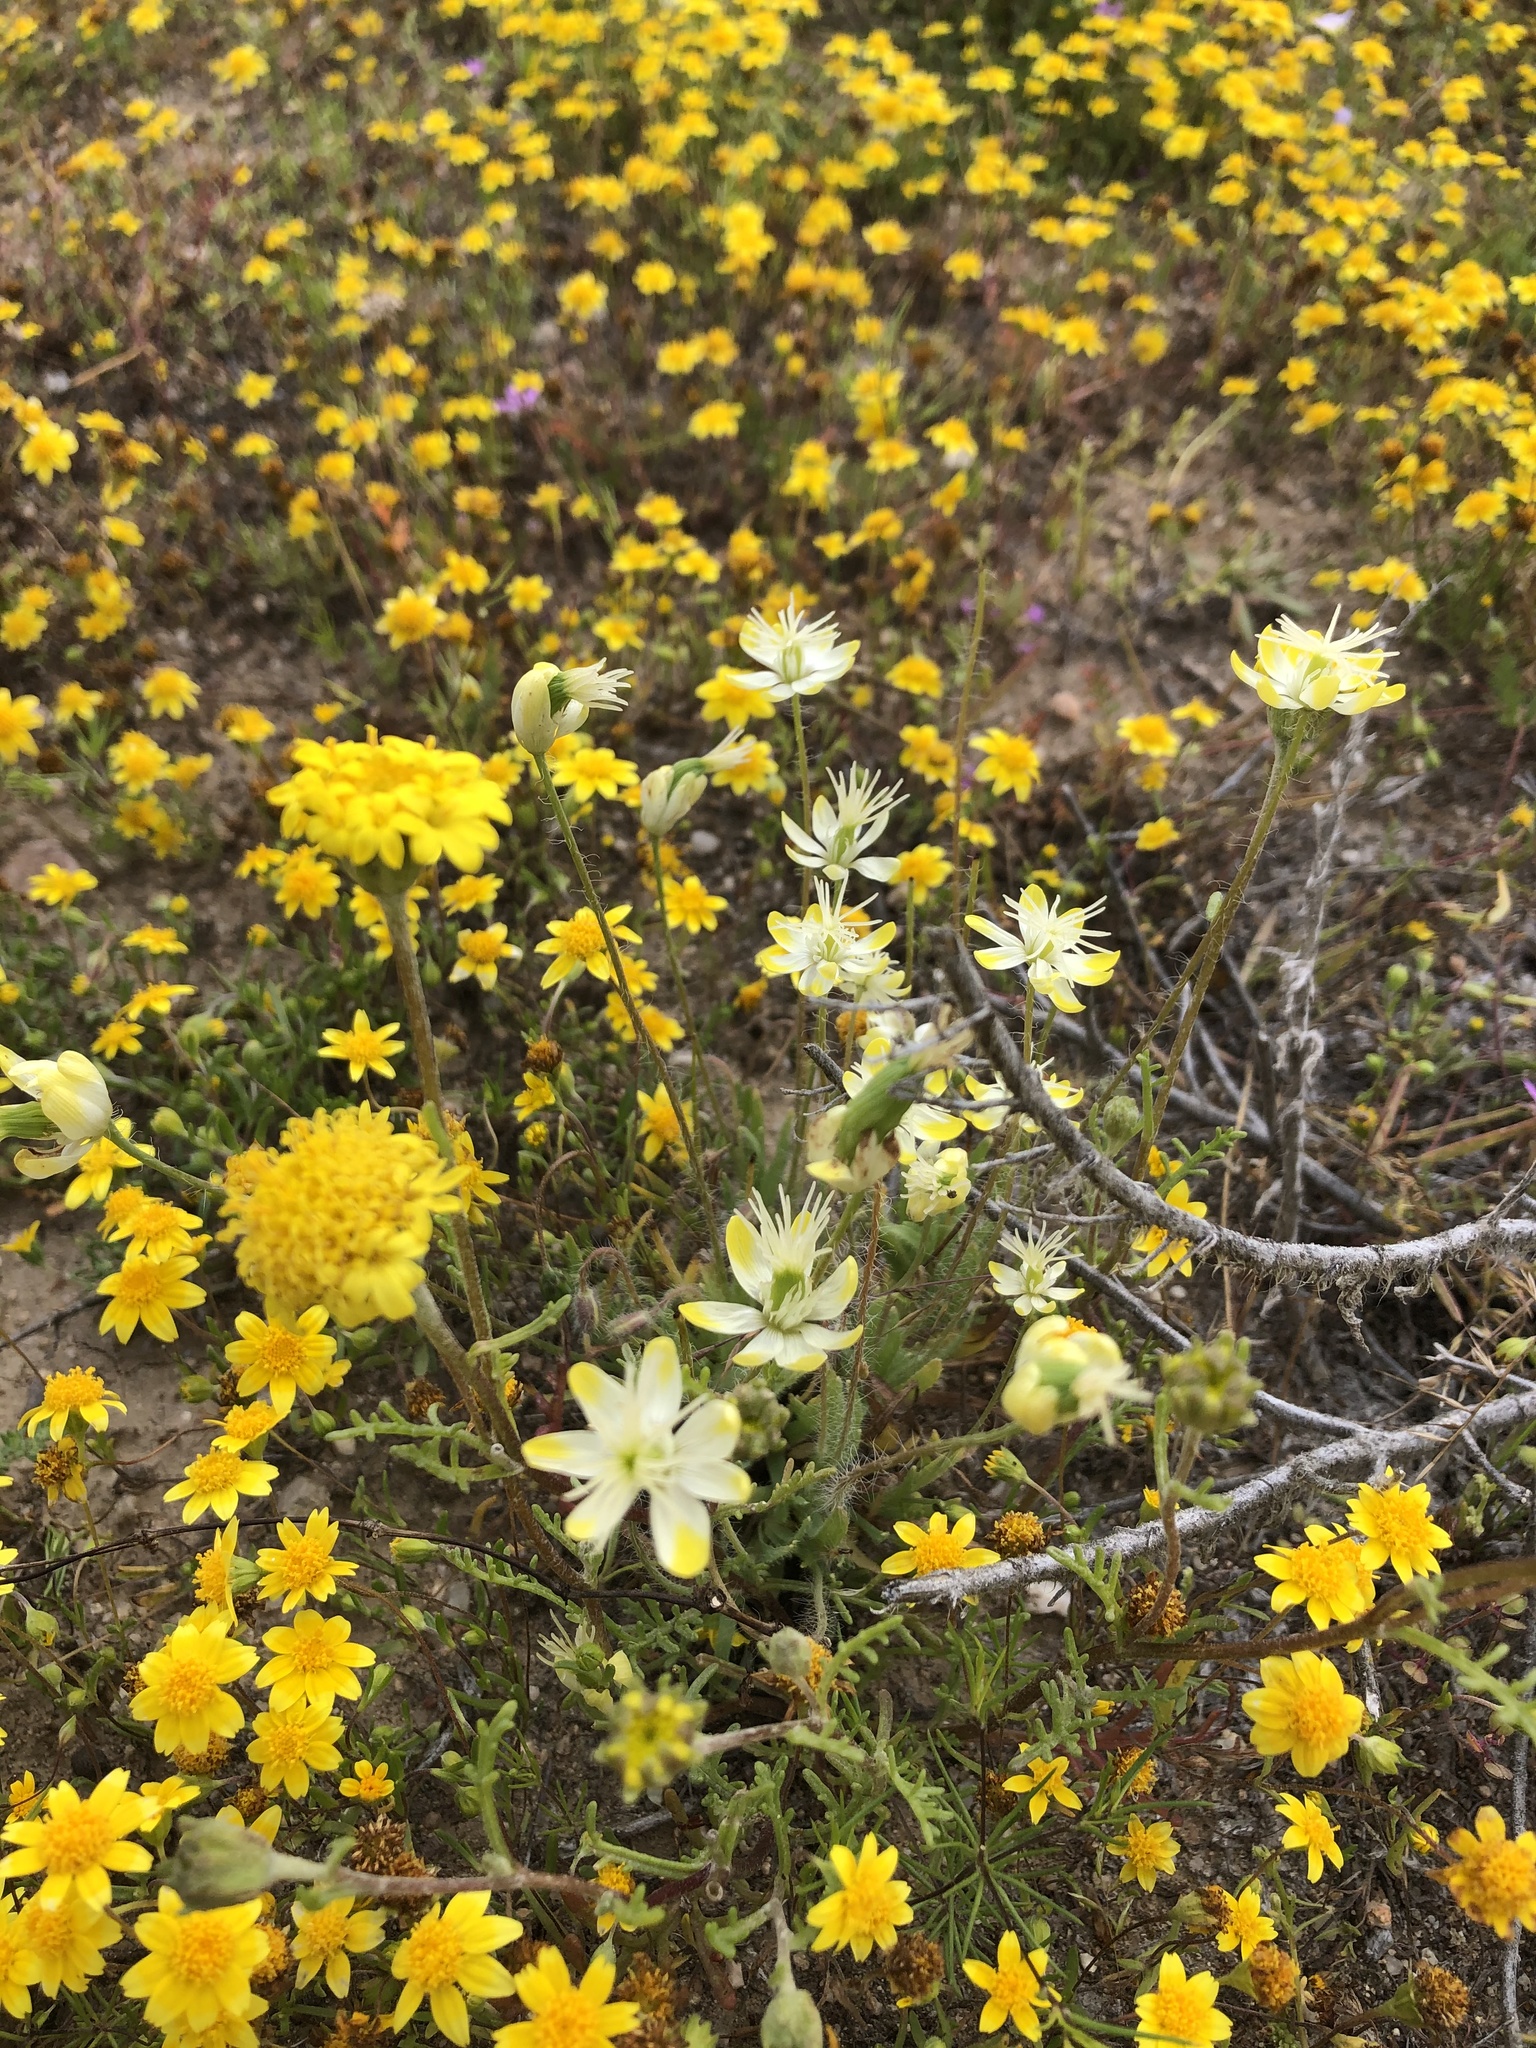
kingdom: Plantae
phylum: Tracheophyta
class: Magnoliopsida
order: Ranunculales
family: Papaveraceae
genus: Platystemon
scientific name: Platystemon californicus
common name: Cream-cups
